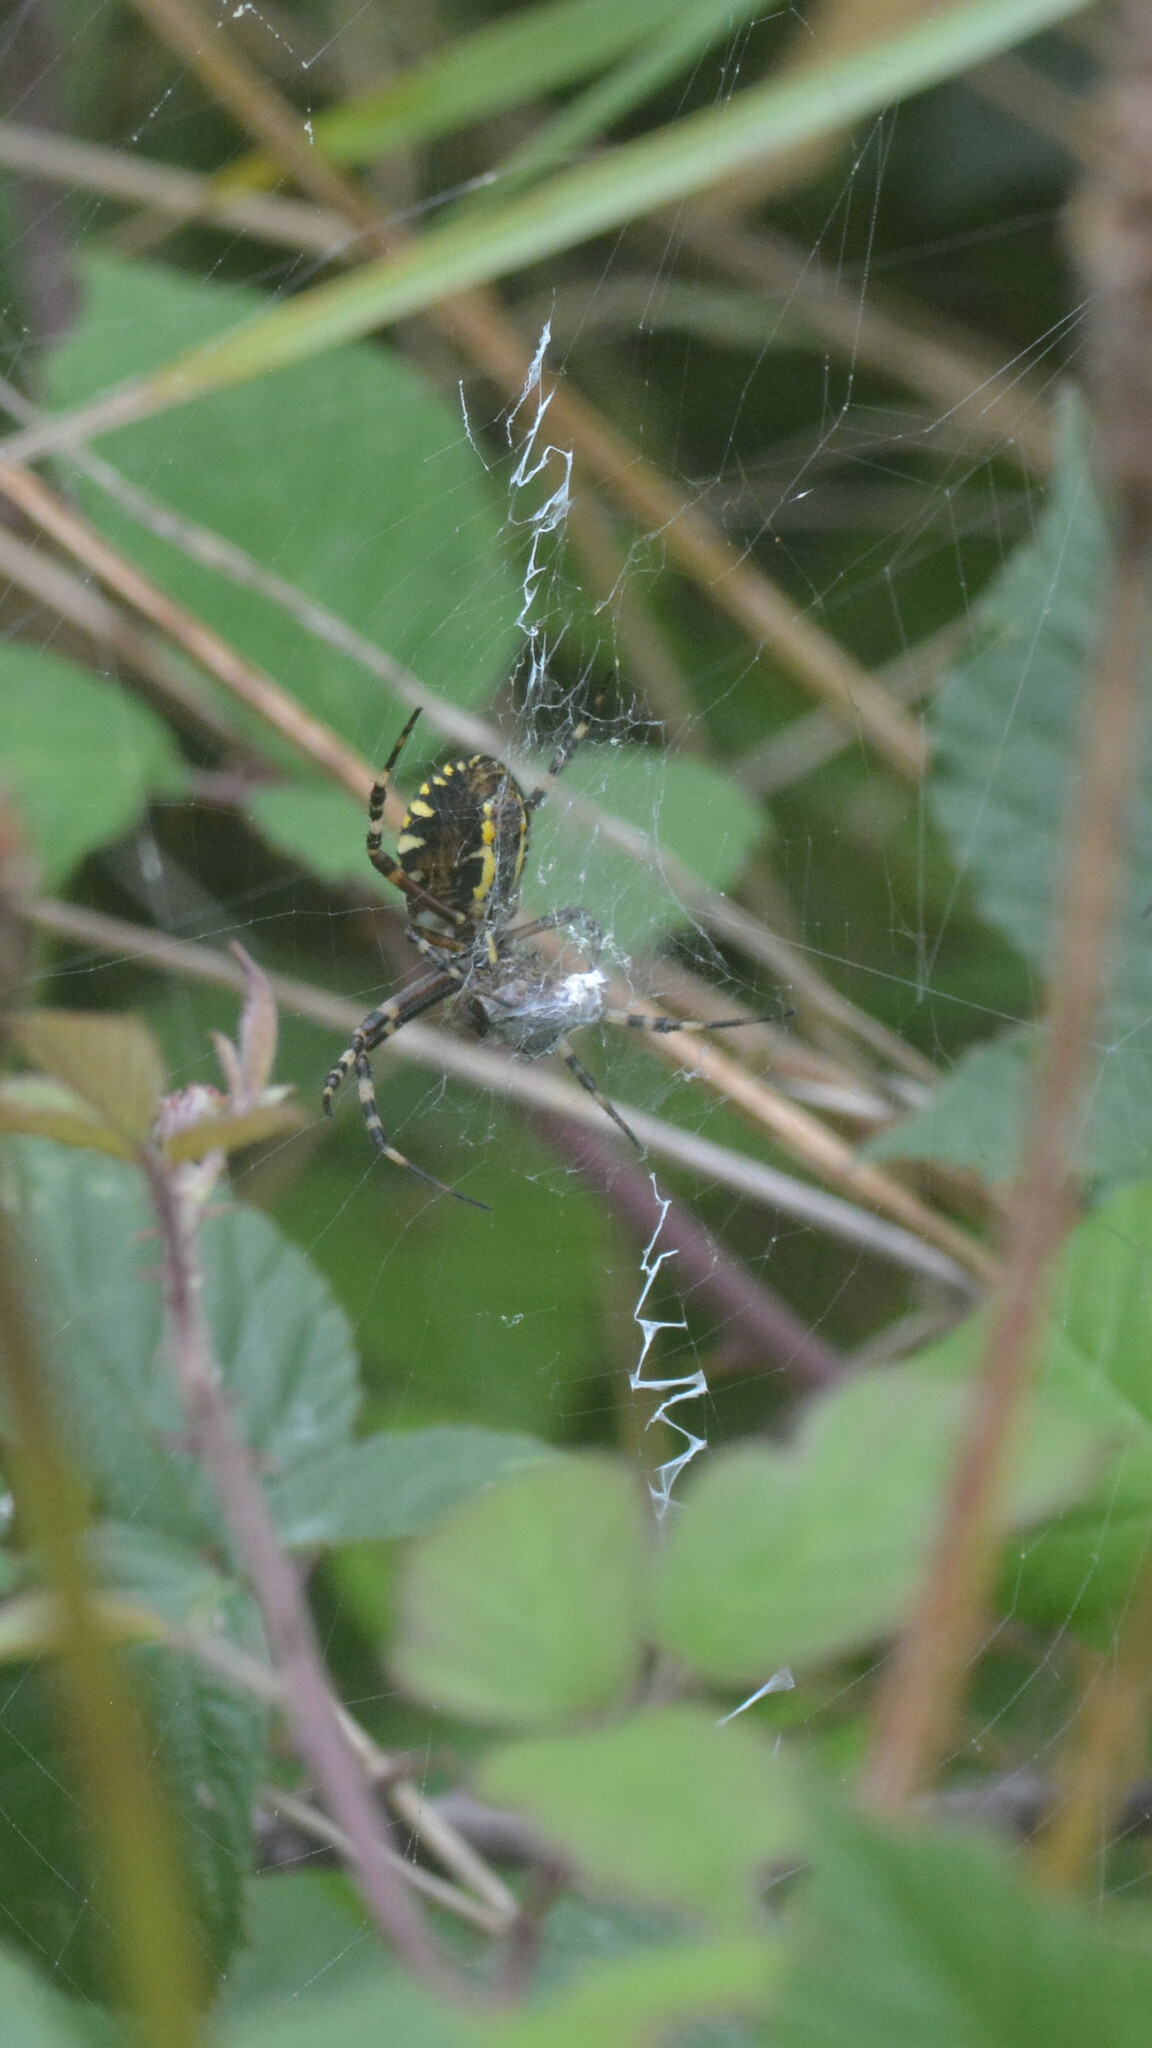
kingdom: Animalia
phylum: Arthropoda
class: Arachnida
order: Araneae
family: Araneidae
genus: Argiope
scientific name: Argiope bruennichi
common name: Wasp spider
